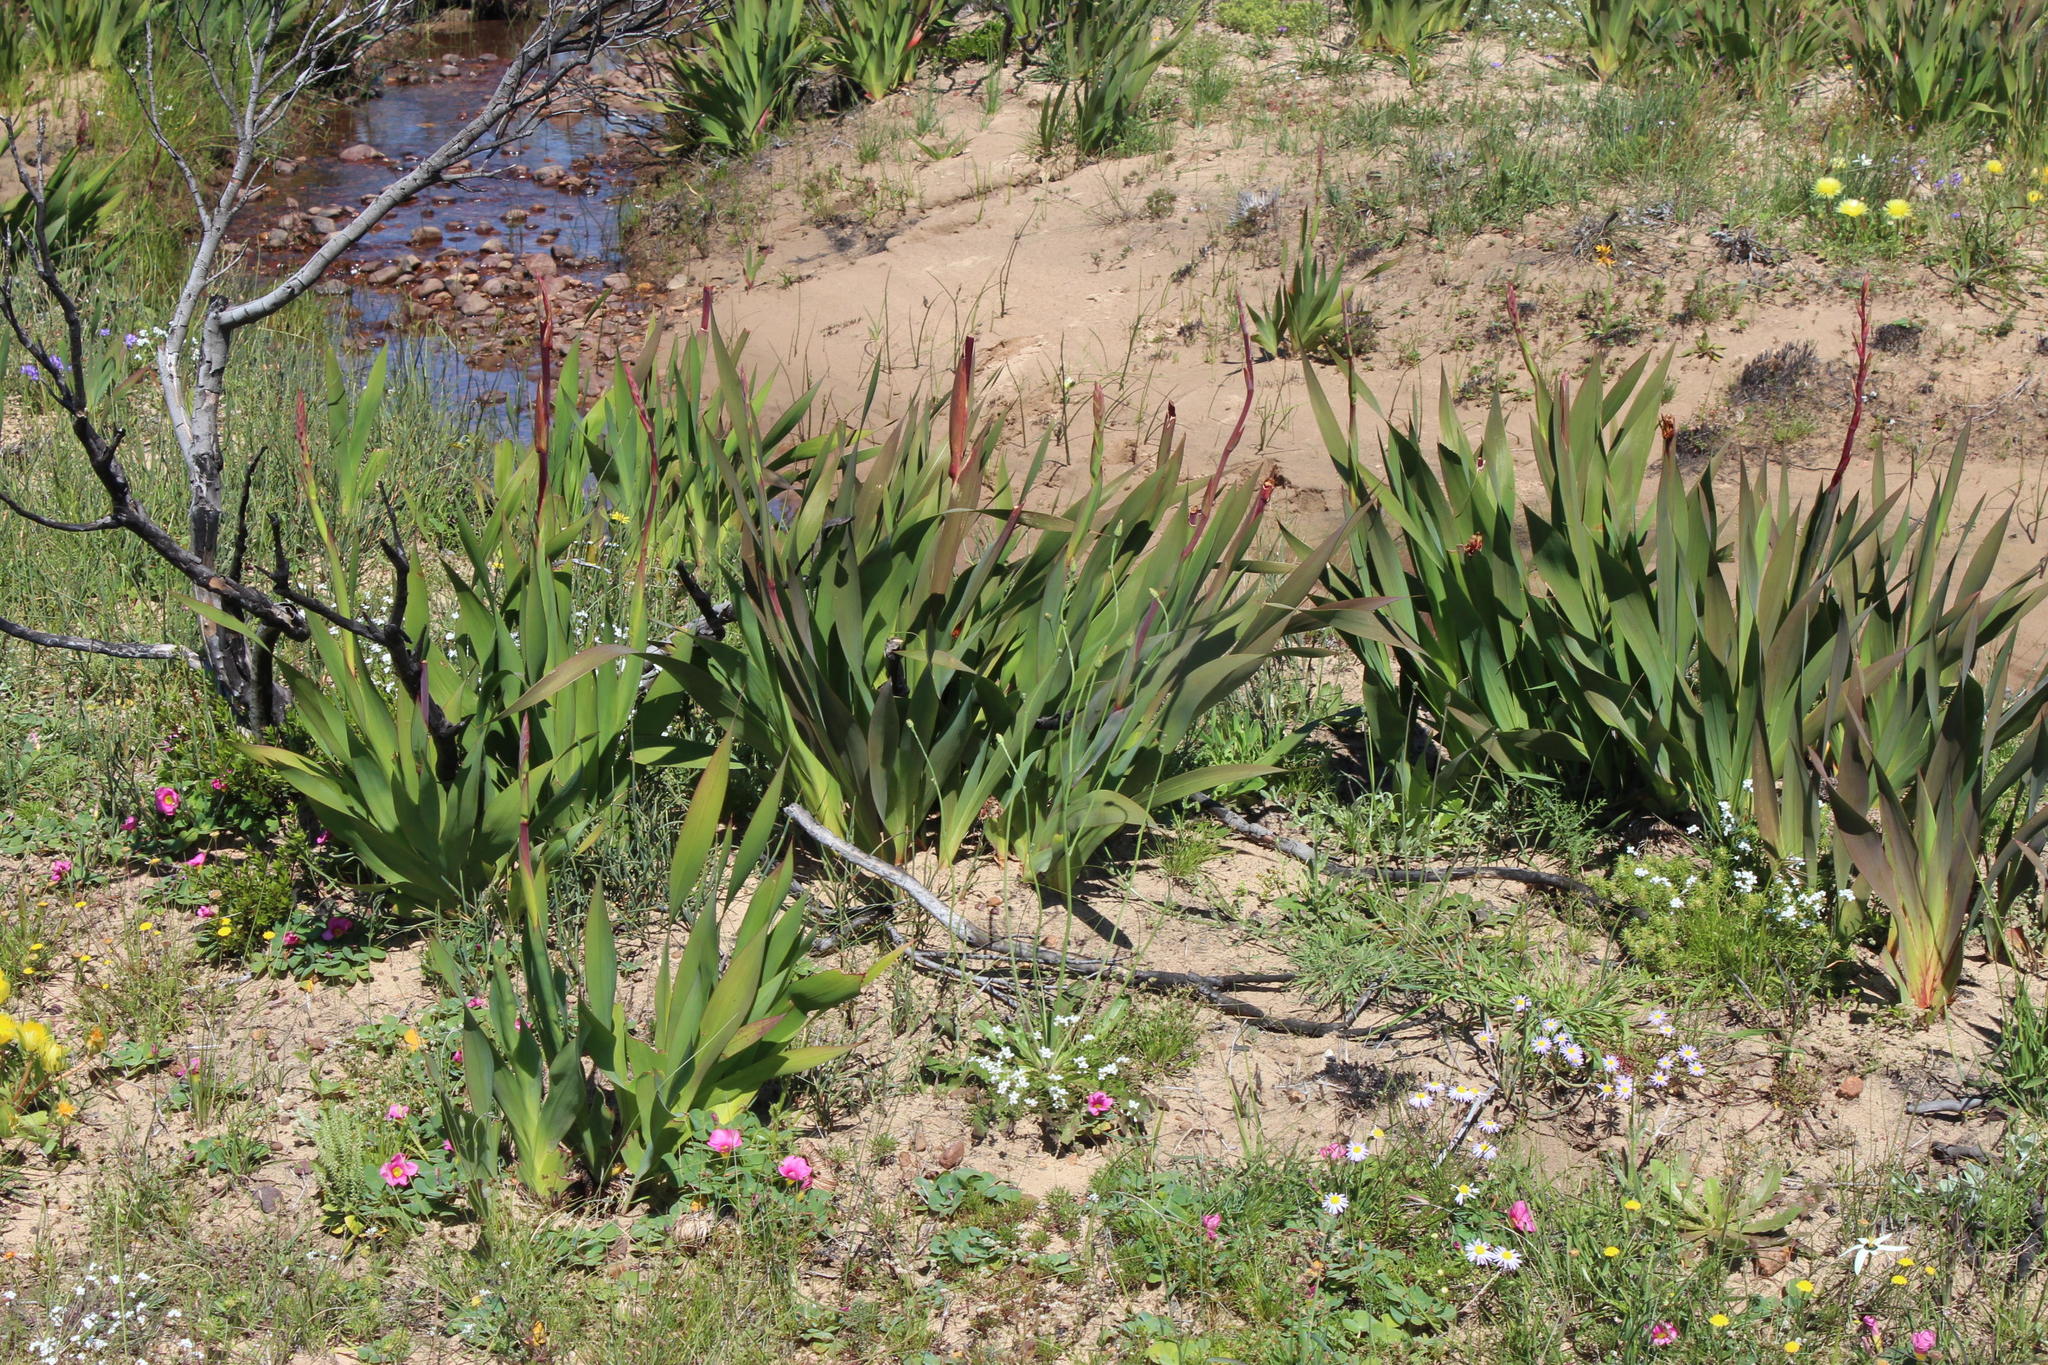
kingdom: Plantae
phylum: Tracheophyta
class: Liliopsida
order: Asparagales
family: Iridaceae
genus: Watsonia
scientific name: Watsonia meriana
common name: Bulbil bugle-lily
